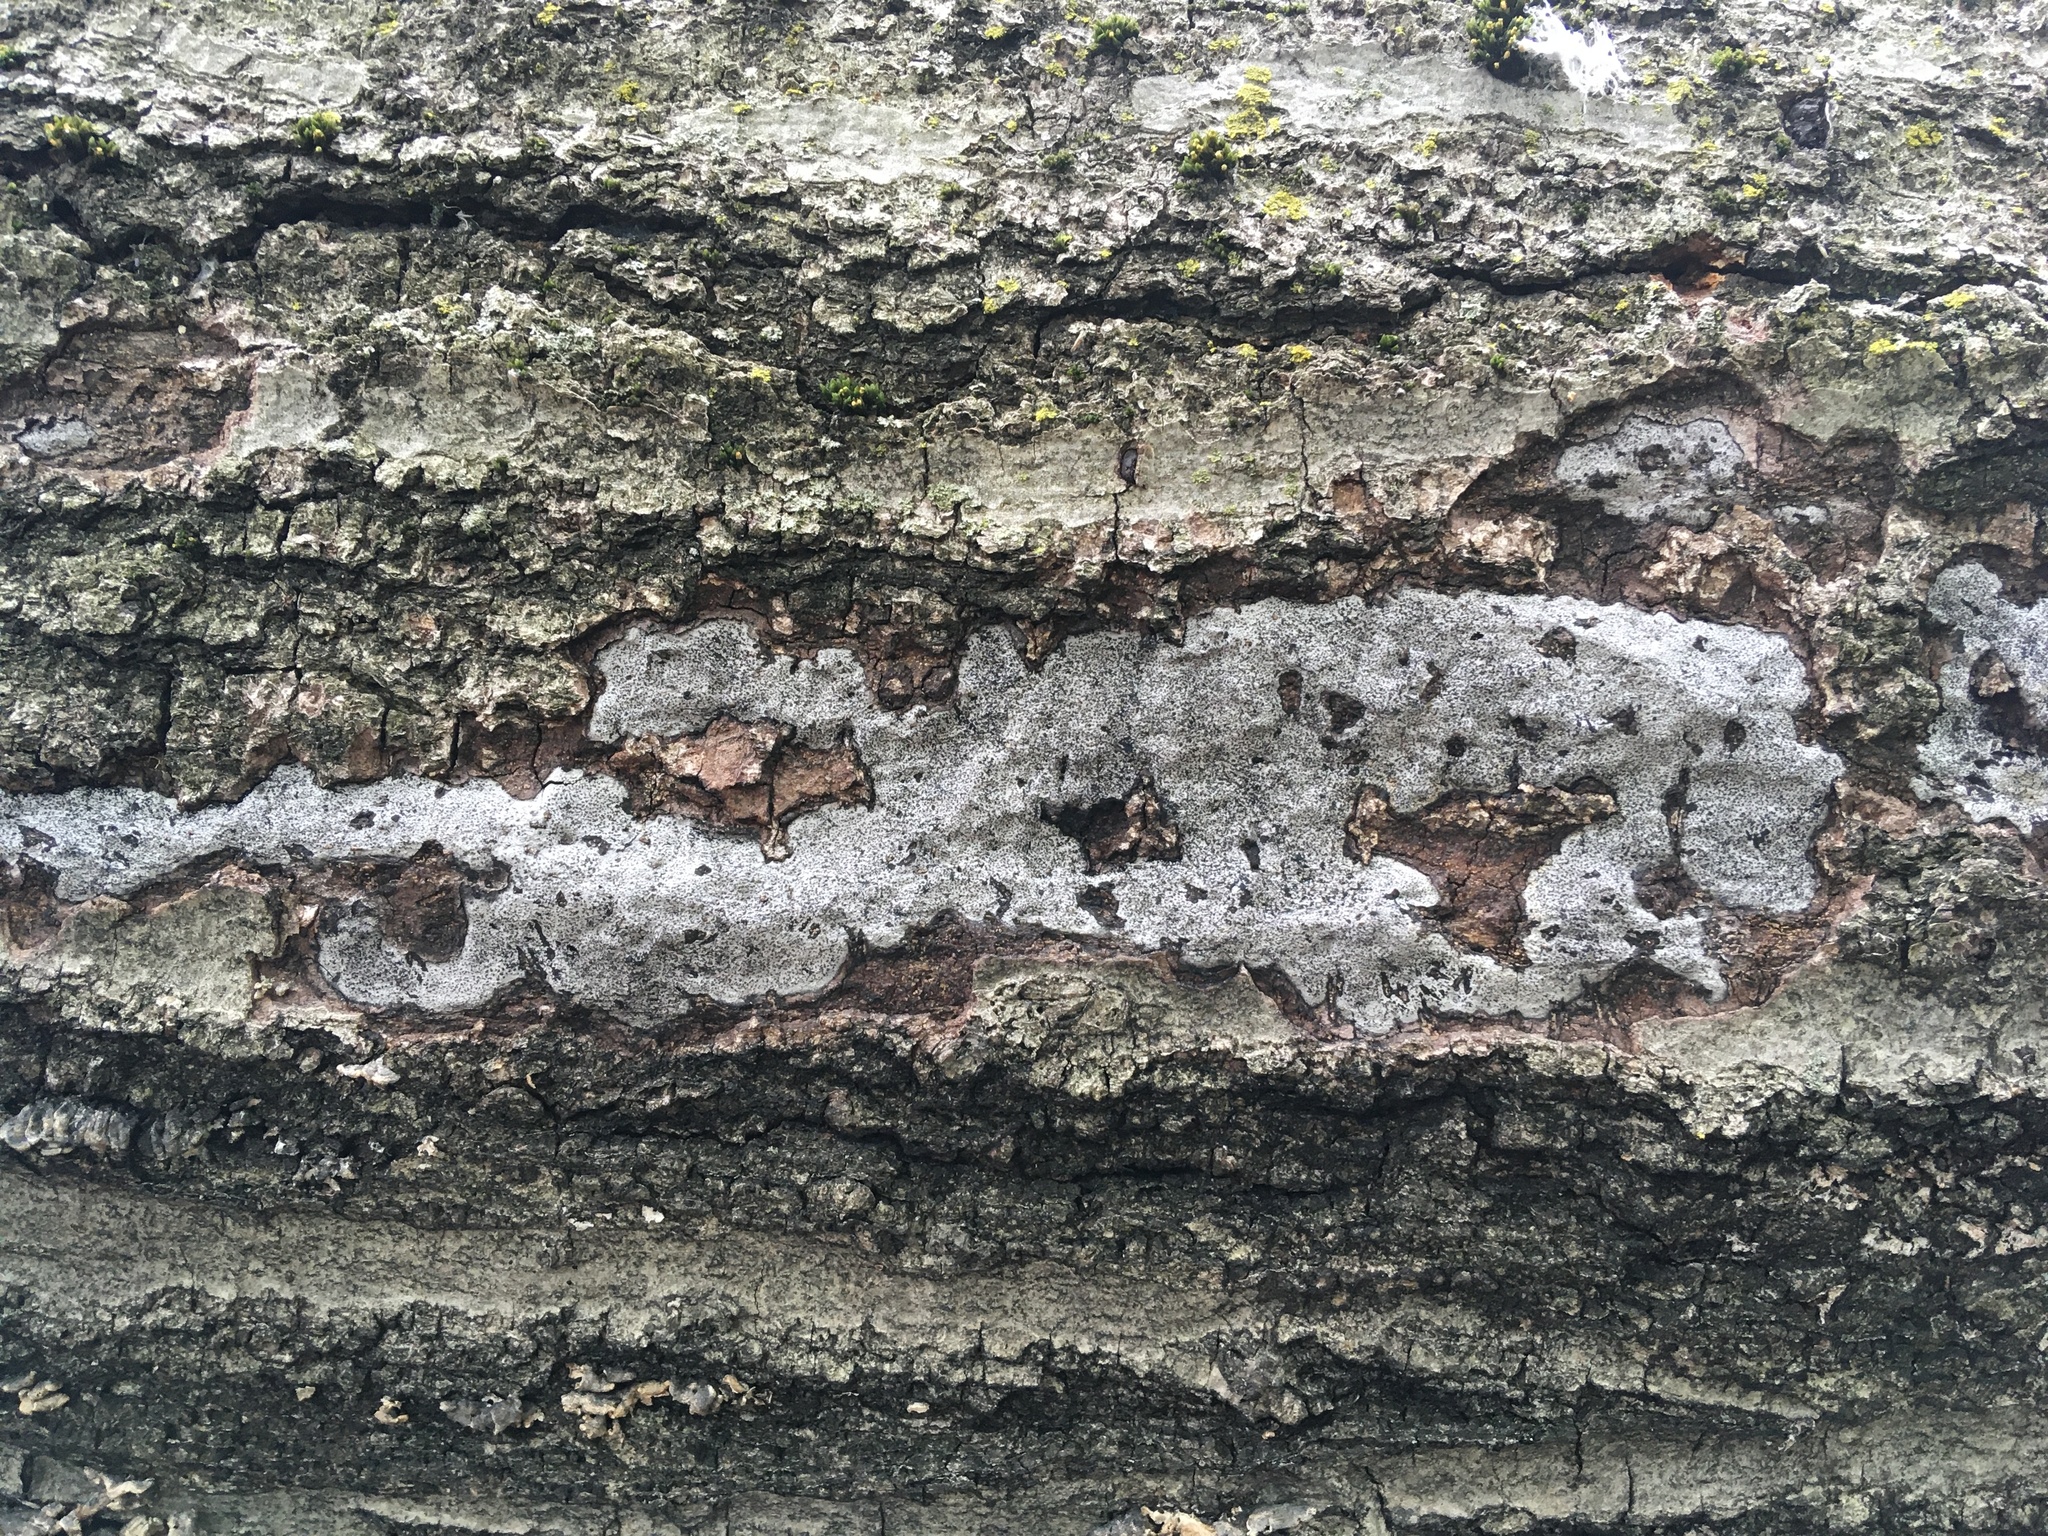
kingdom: Fungi
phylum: Ascomycota
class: Sordariomycetes
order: Xylariales
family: Graphostromataceae
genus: Biscogniauxia
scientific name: Biscogniauxia atropunctata
